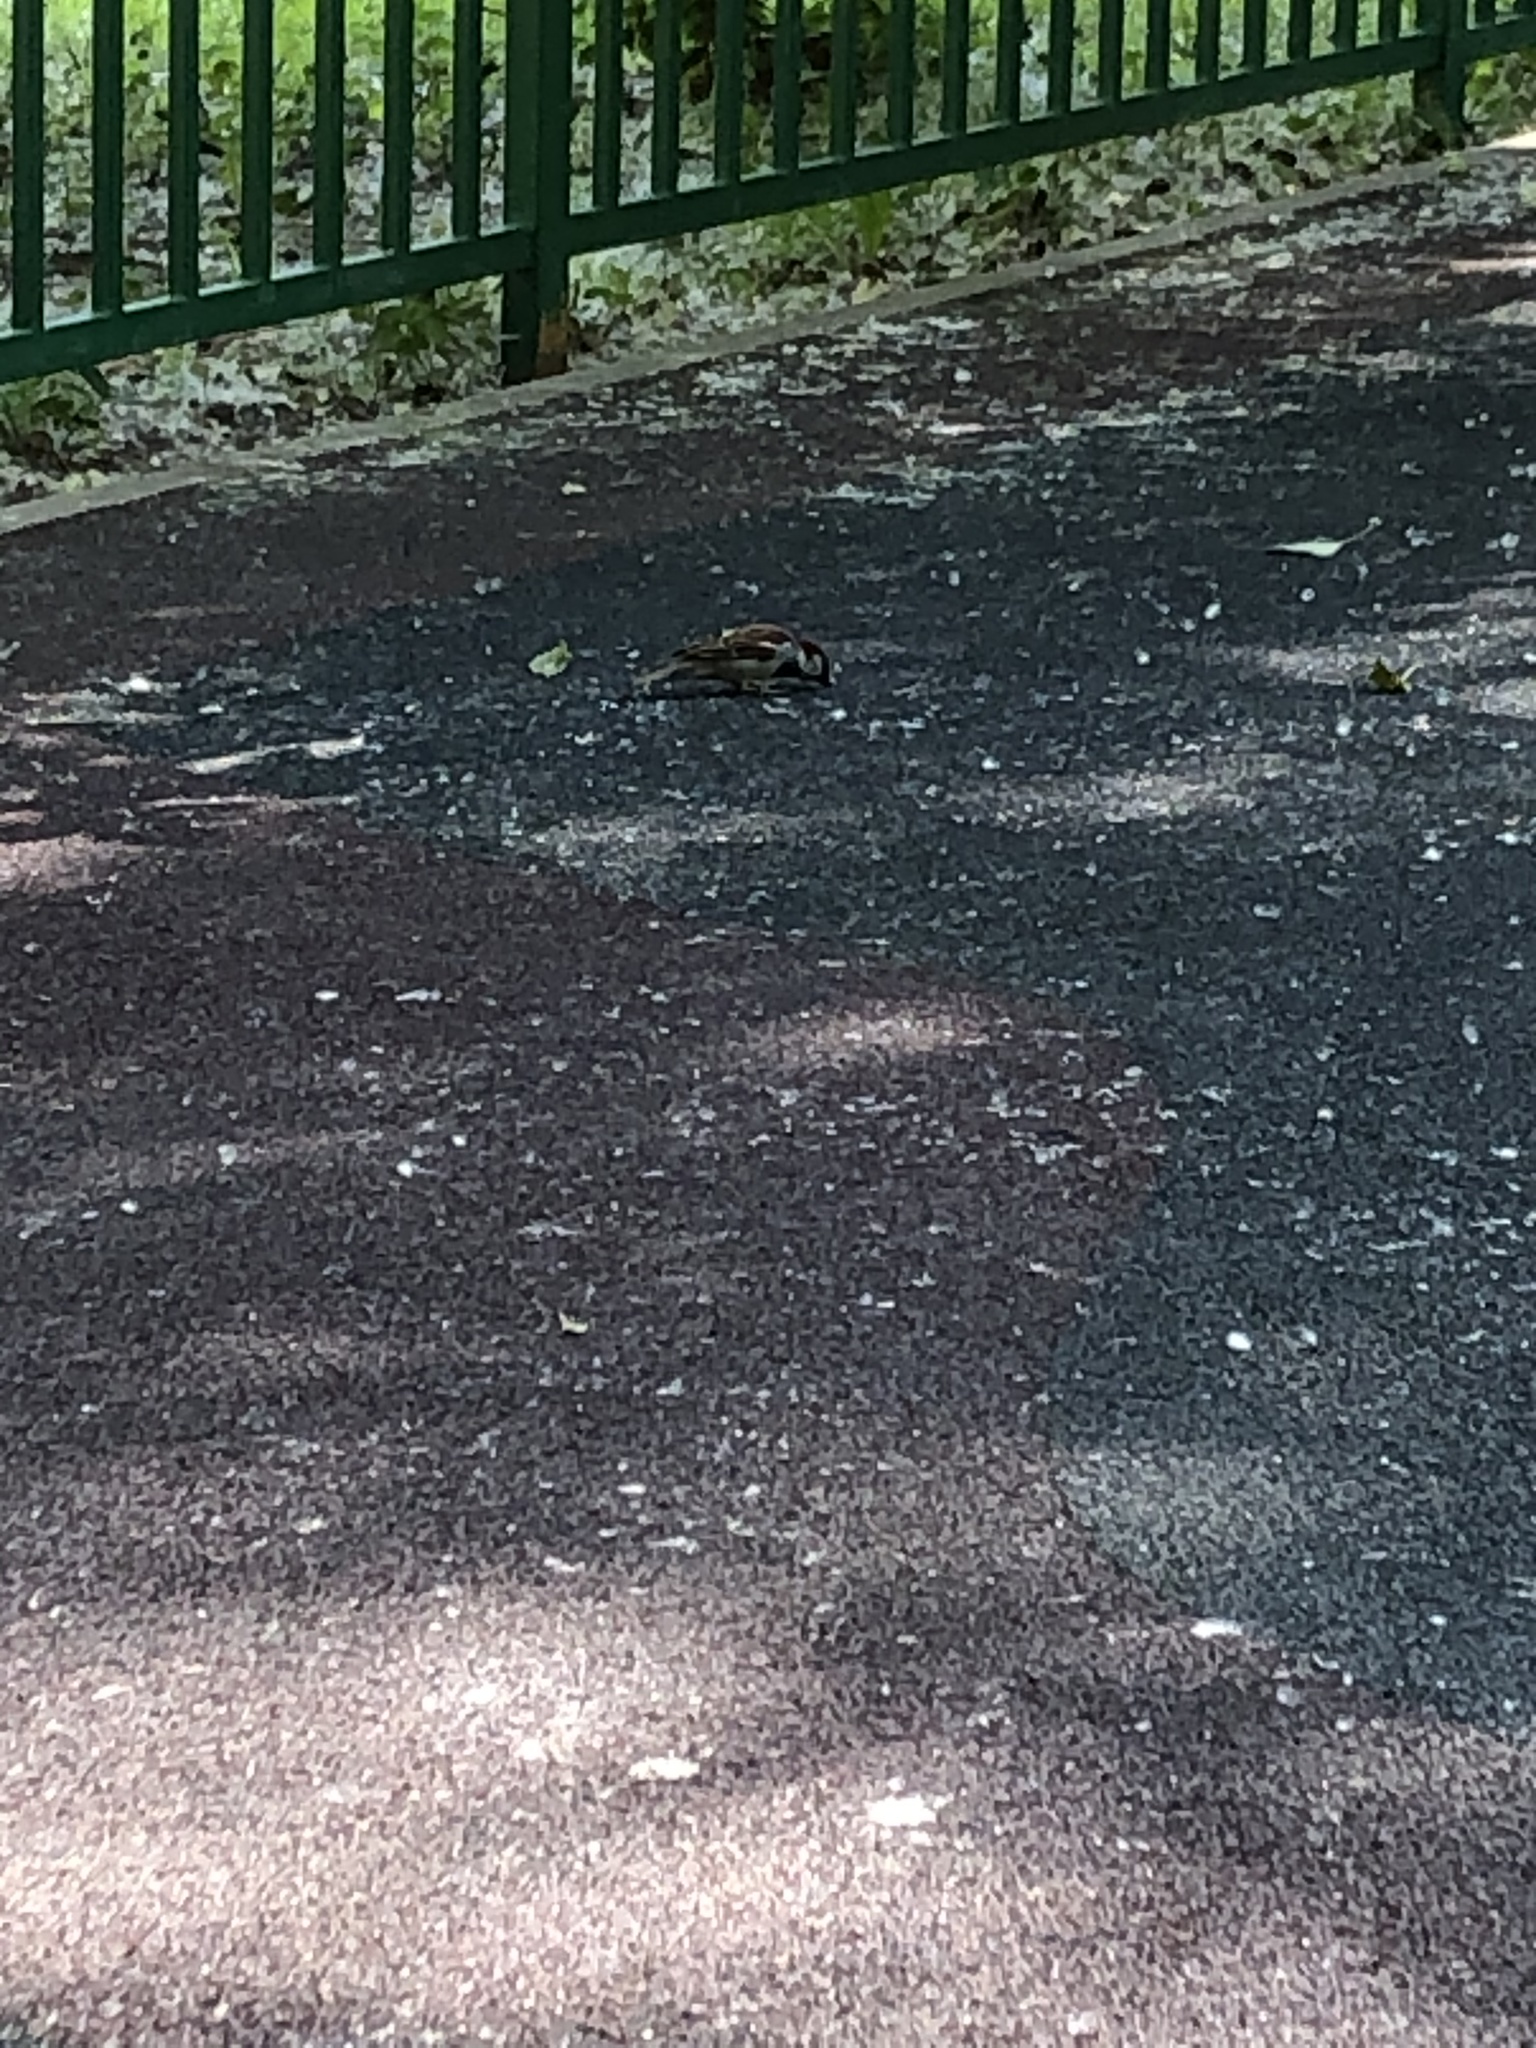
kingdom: Animalia
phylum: Chordata
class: Aves
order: Passeriformes
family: Passeridae
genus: Passer
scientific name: Passer domesticus
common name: House sparrow
